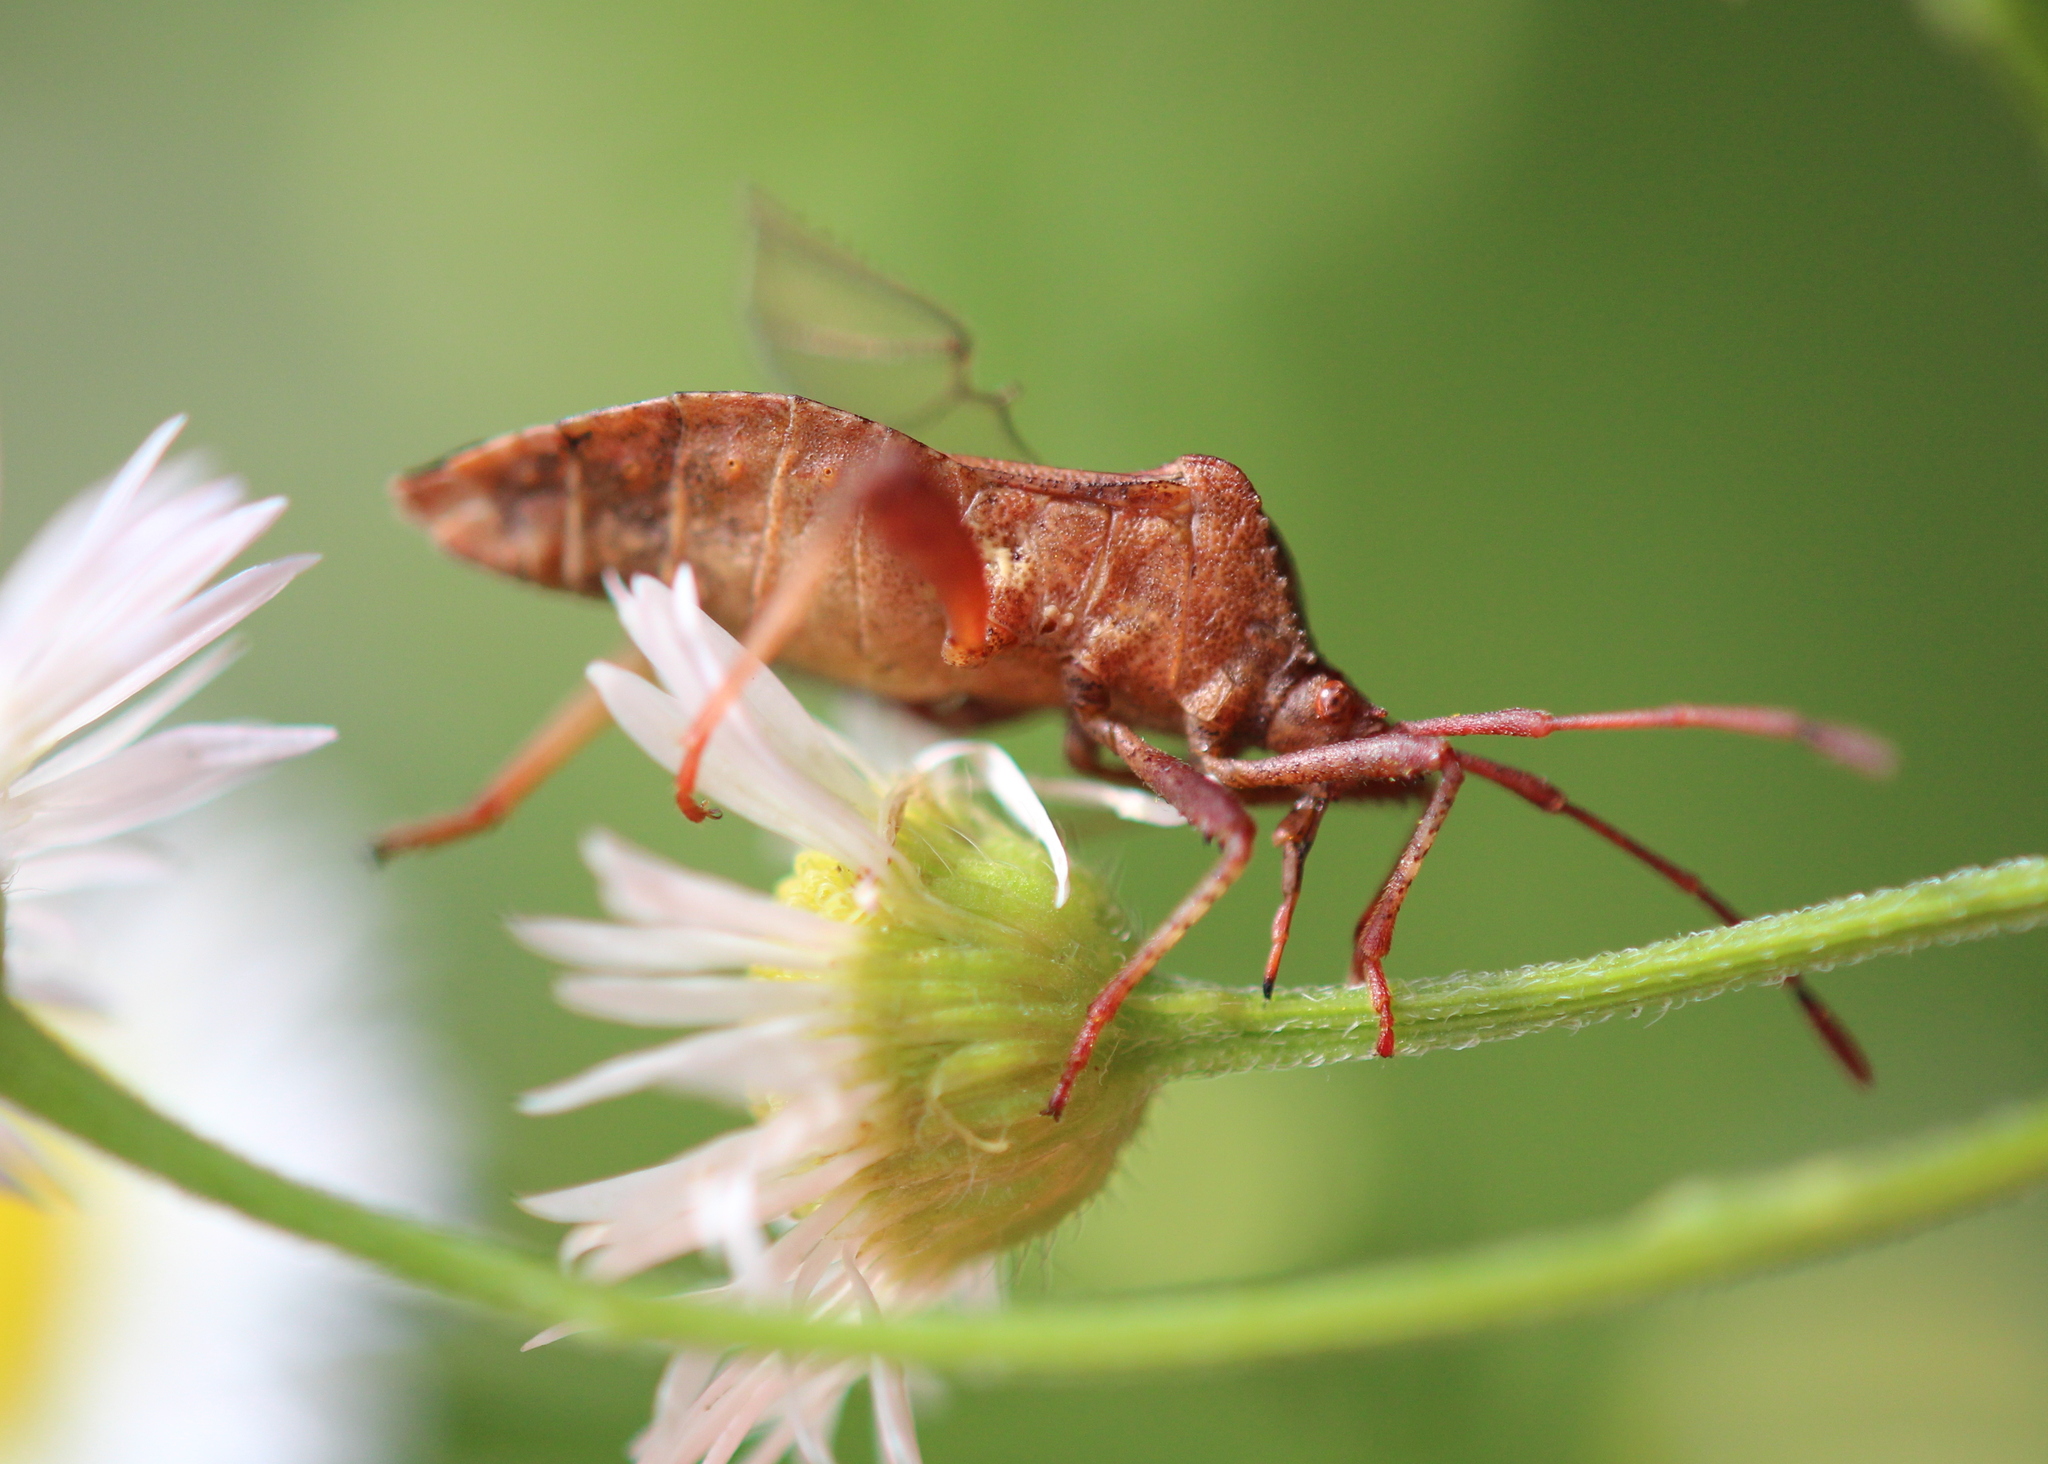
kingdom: Animalia
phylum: Arthropoda
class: Insecta
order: Hemiptera
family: Coreidae
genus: Euthochtha
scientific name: Euthochtha galeator
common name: Helmeted squash bug
